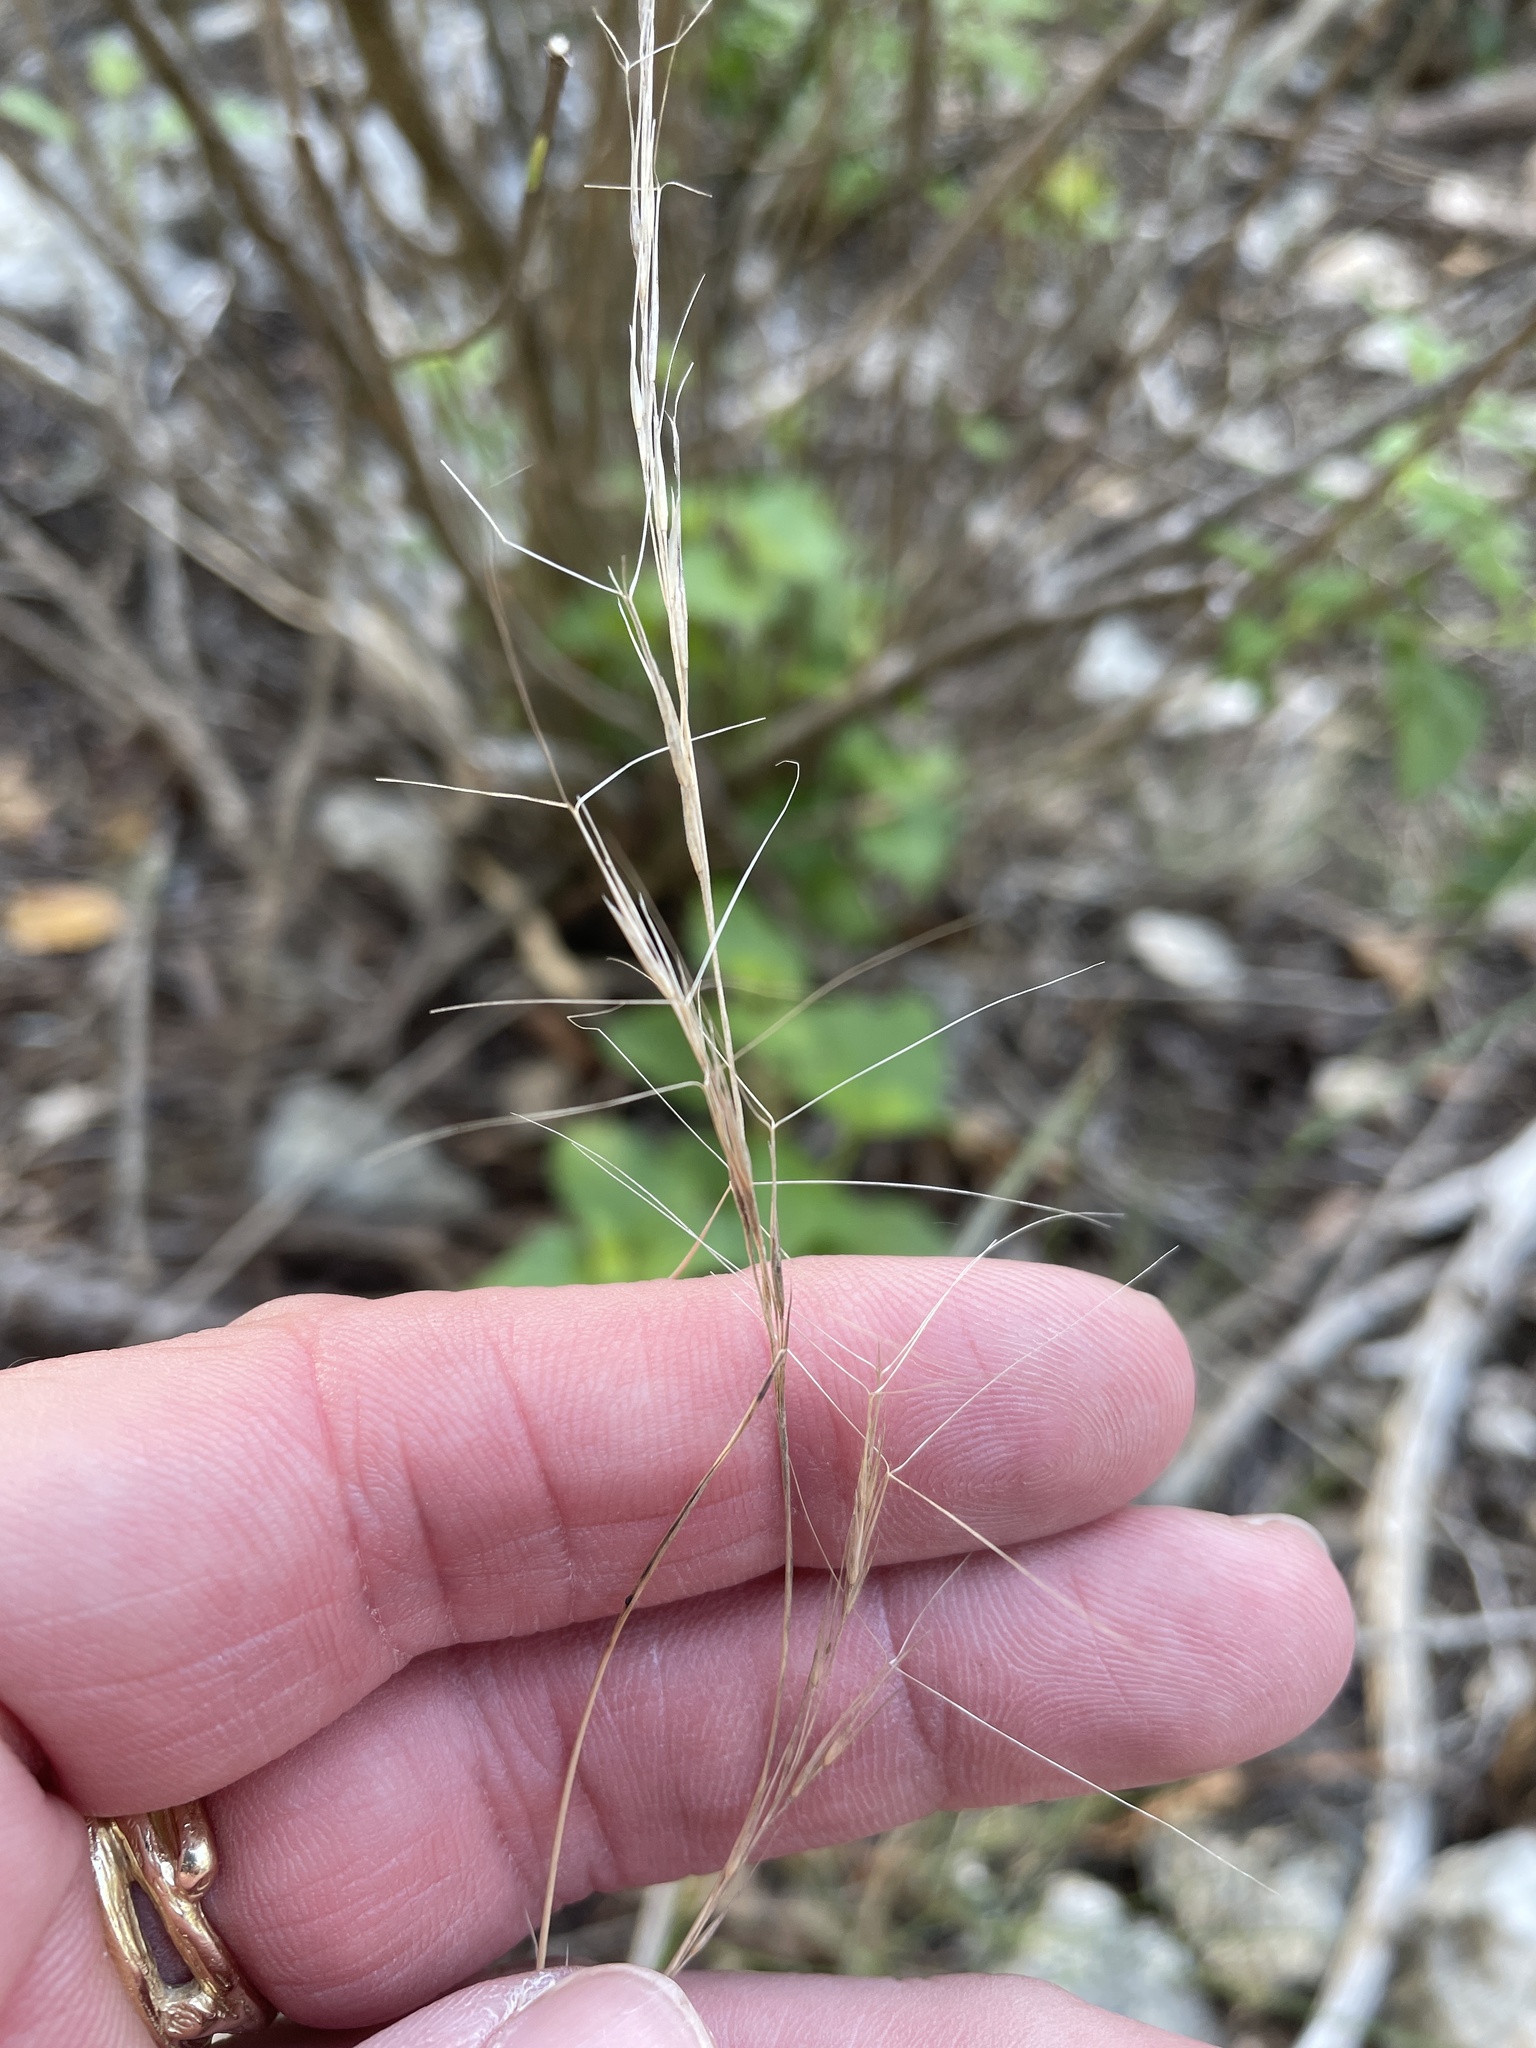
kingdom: Plantae
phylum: Tracheophyta
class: Liliopsida
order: Poales
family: Poaceae
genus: Aristida
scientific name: Aristida purpurea
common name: Purple threeawn
